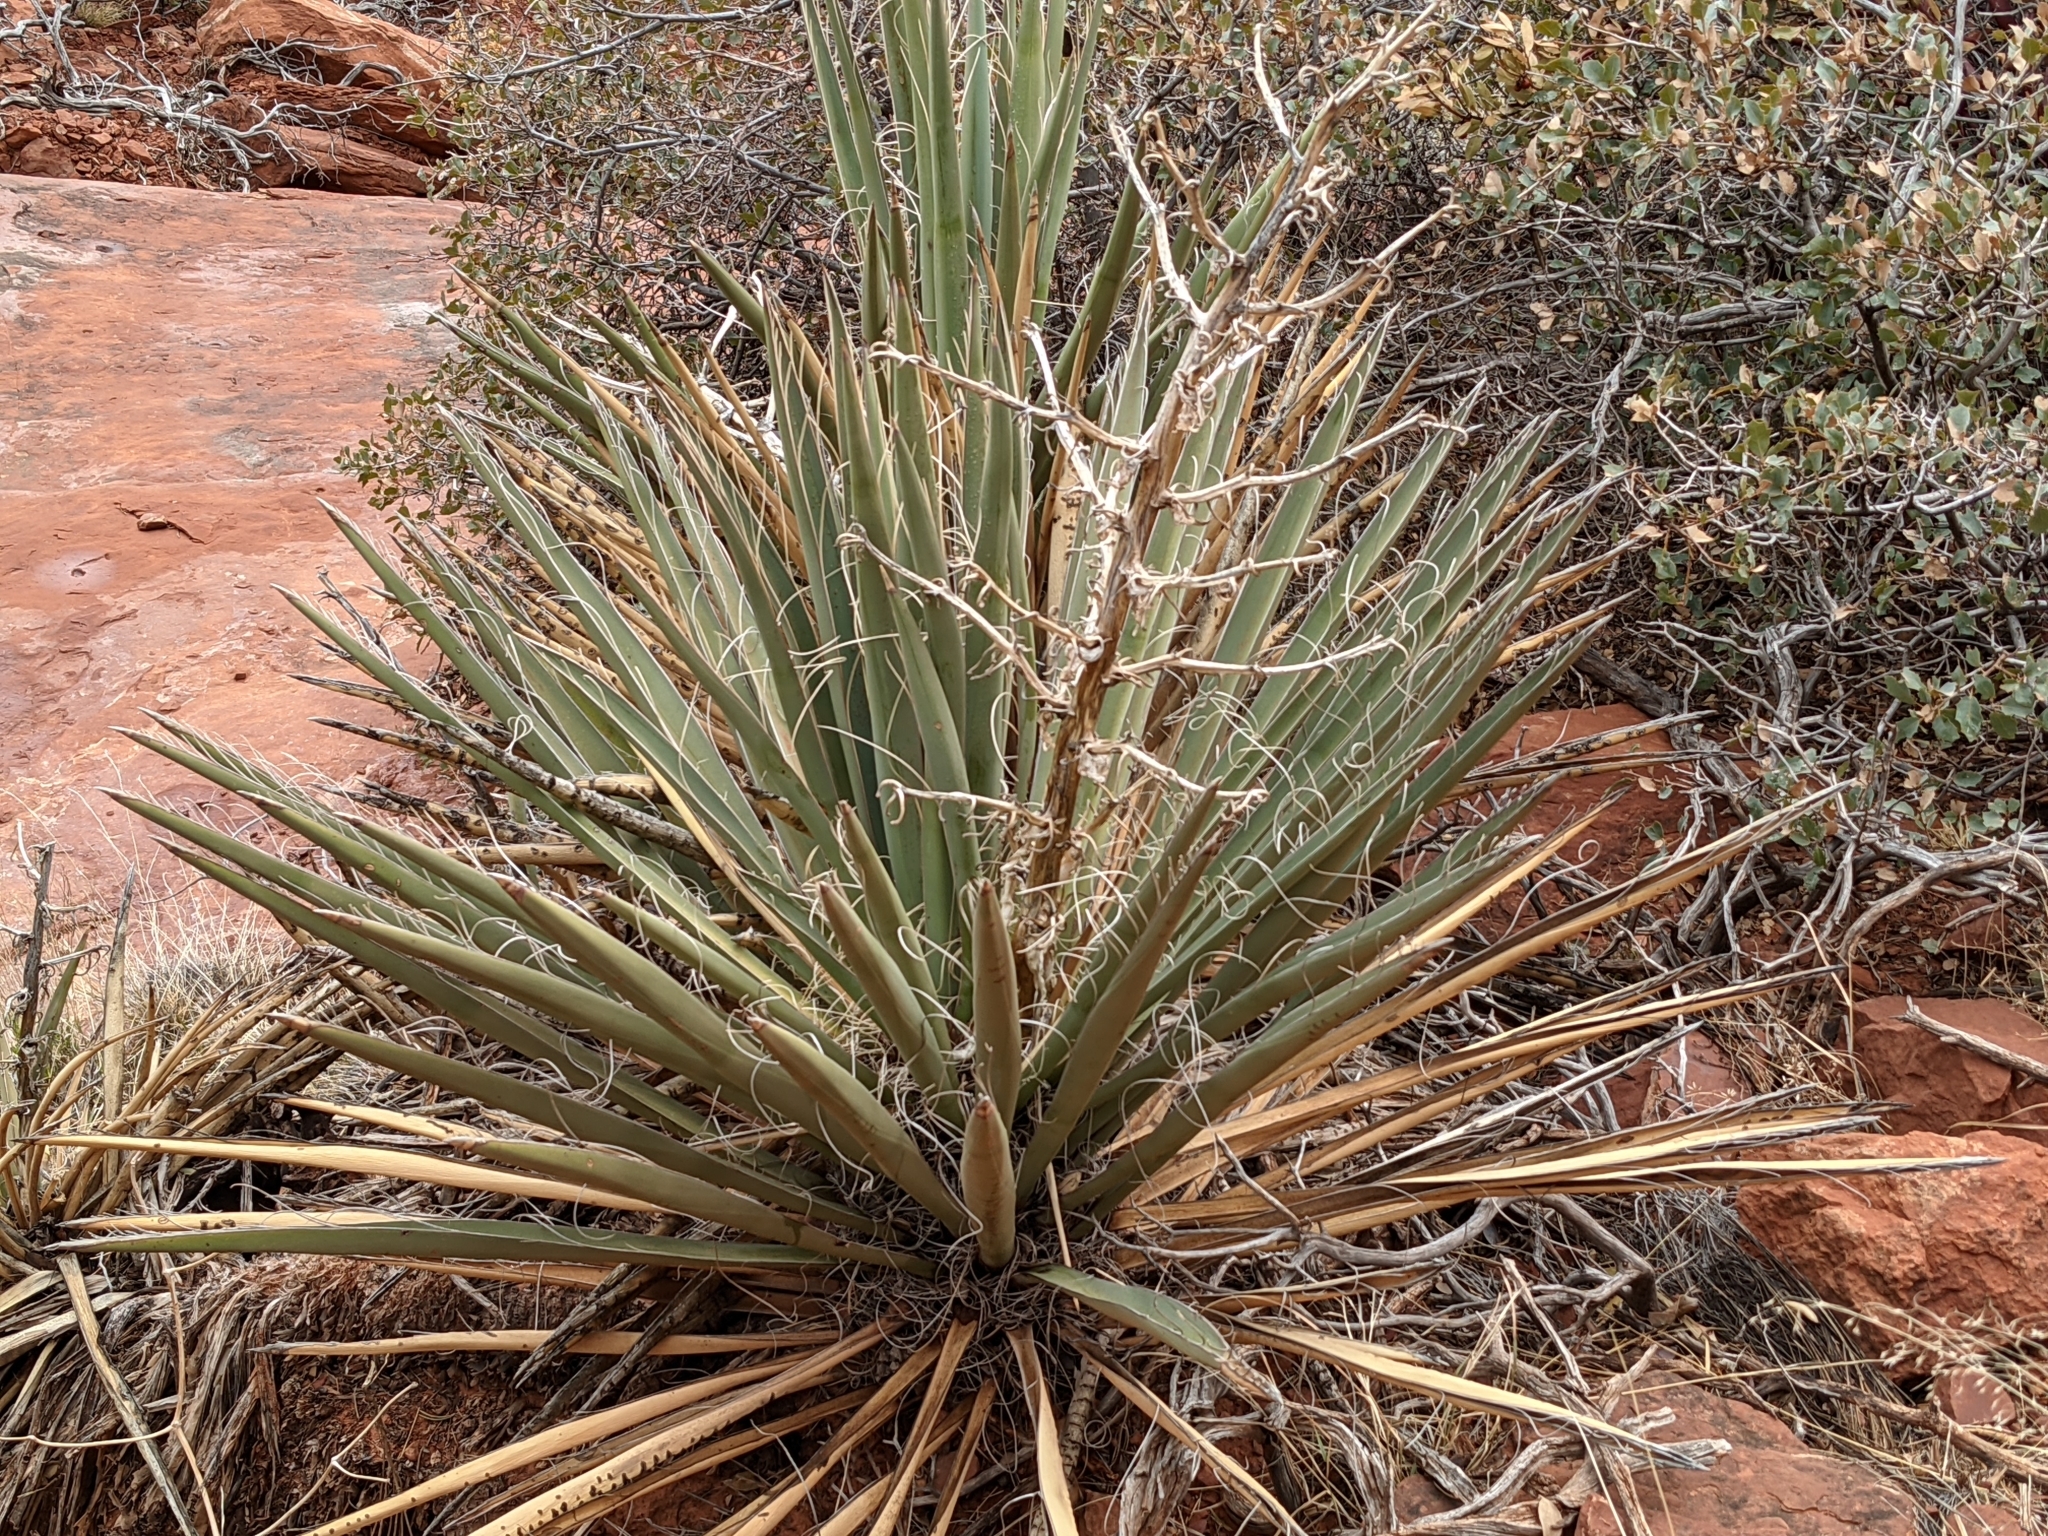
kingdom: Plantae
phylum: Tracheophyta
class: Liliopsida
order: Asparagales
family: Asparagaceae
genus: Yucca
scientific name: Yucca baccata
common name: Banana yucca
